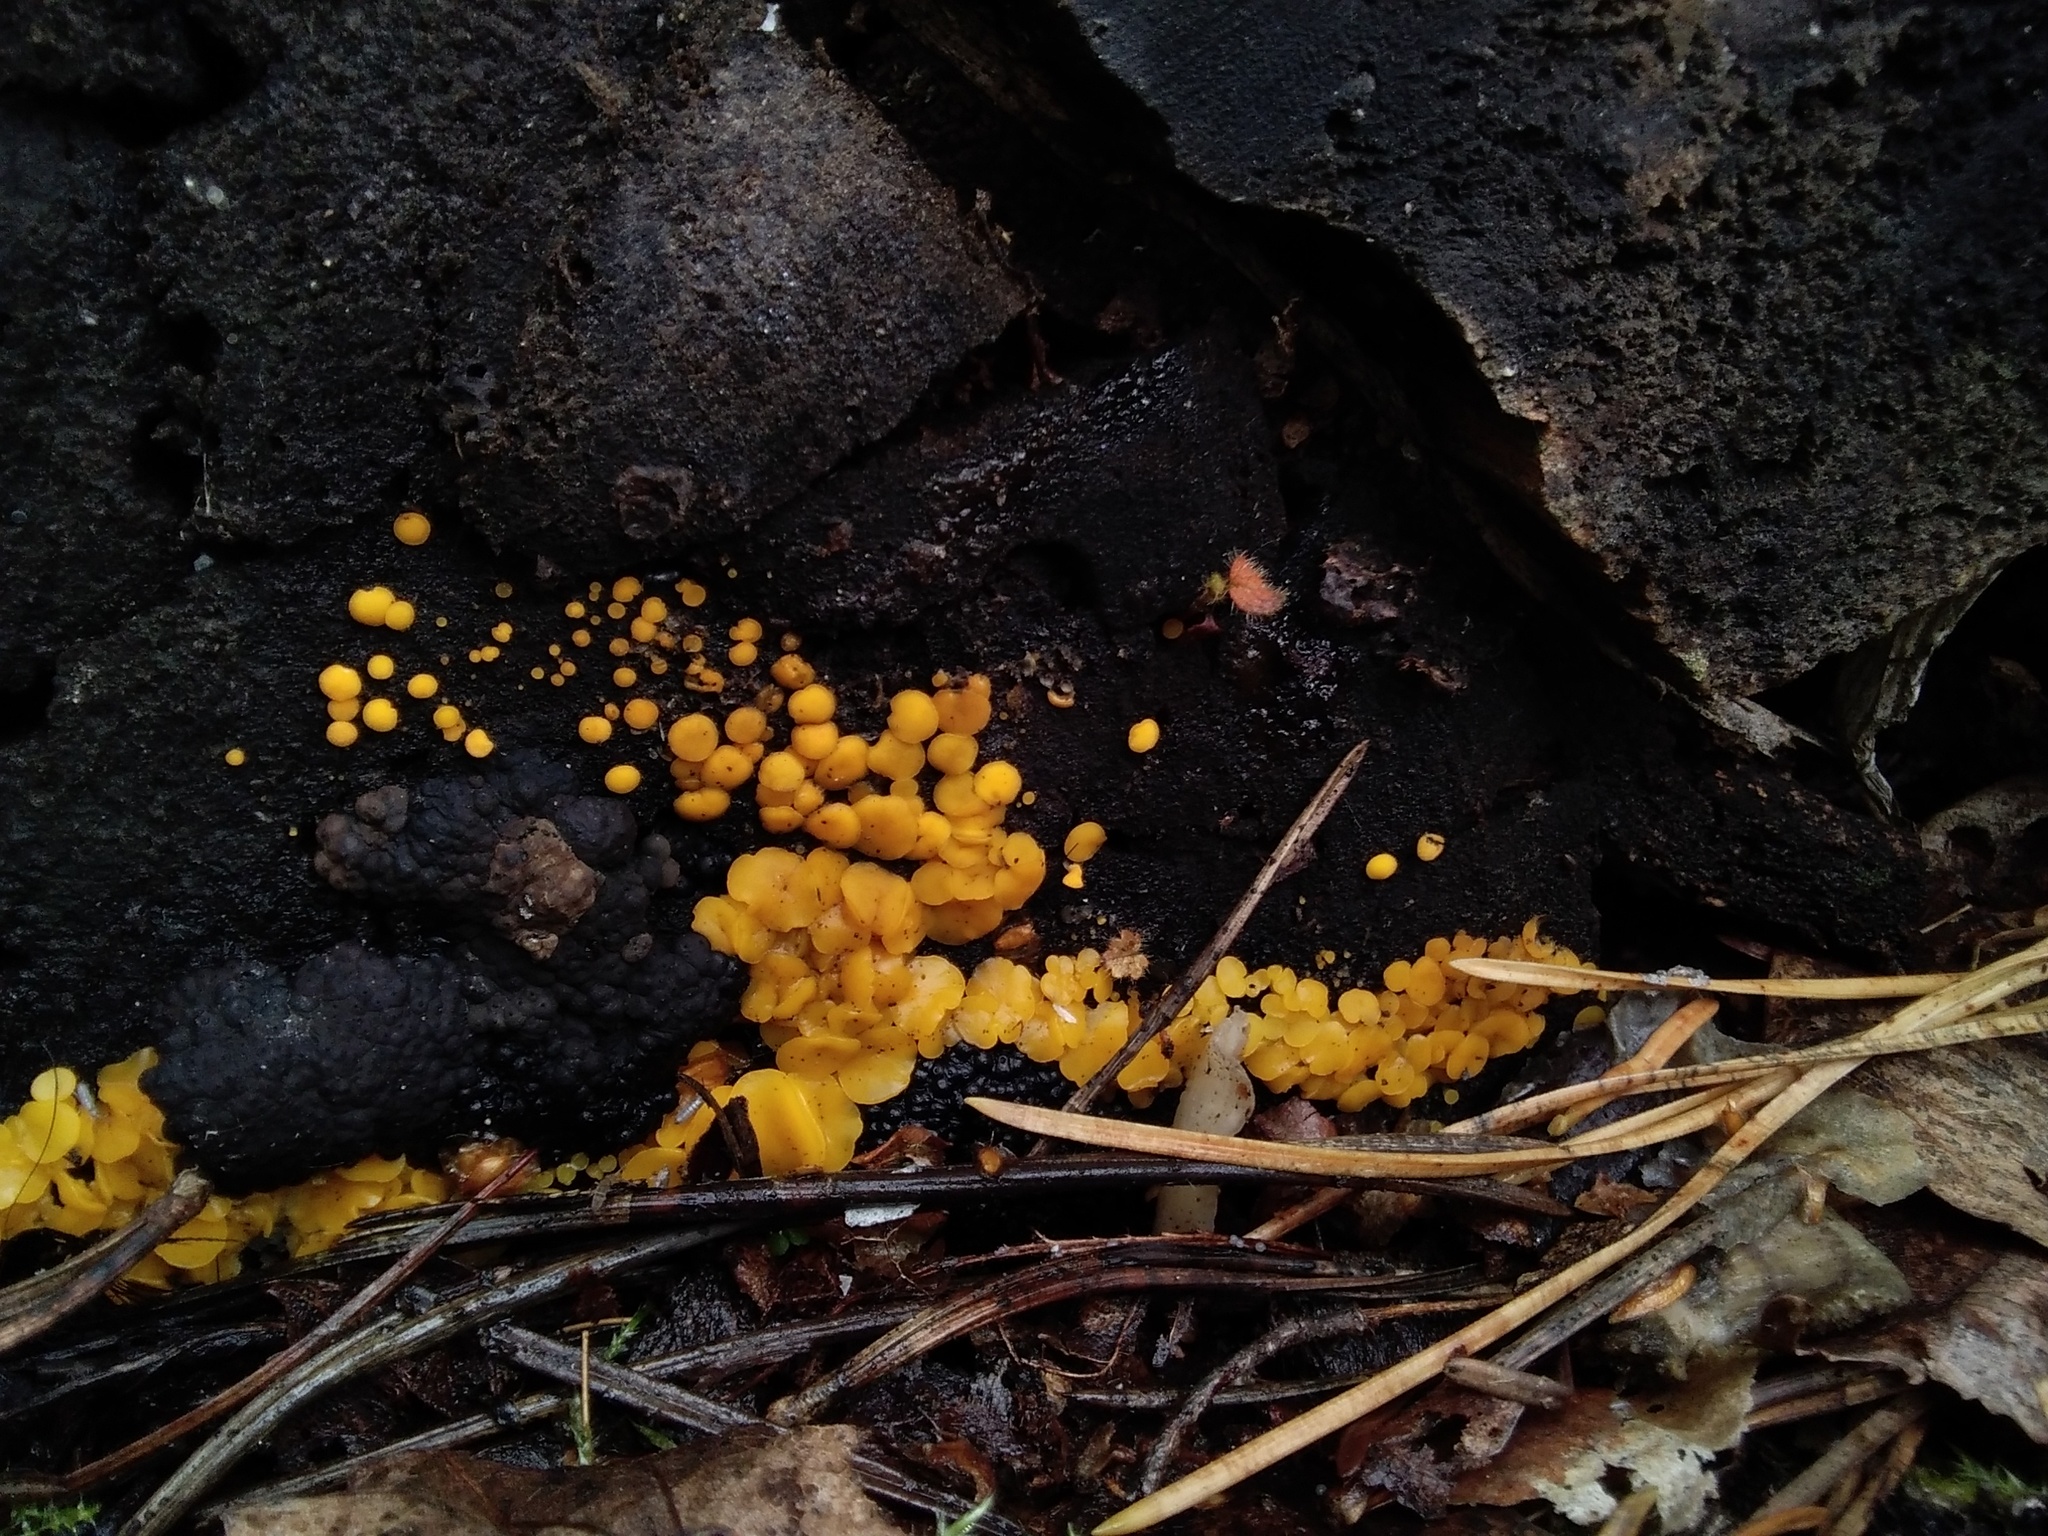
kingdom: Fungi
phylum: Ascomycota
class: Leotiomycetes
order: Helotiales
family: Pezizellaceae
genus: Calycina
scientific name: Calycina citrina
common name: Yellow fairy cups
